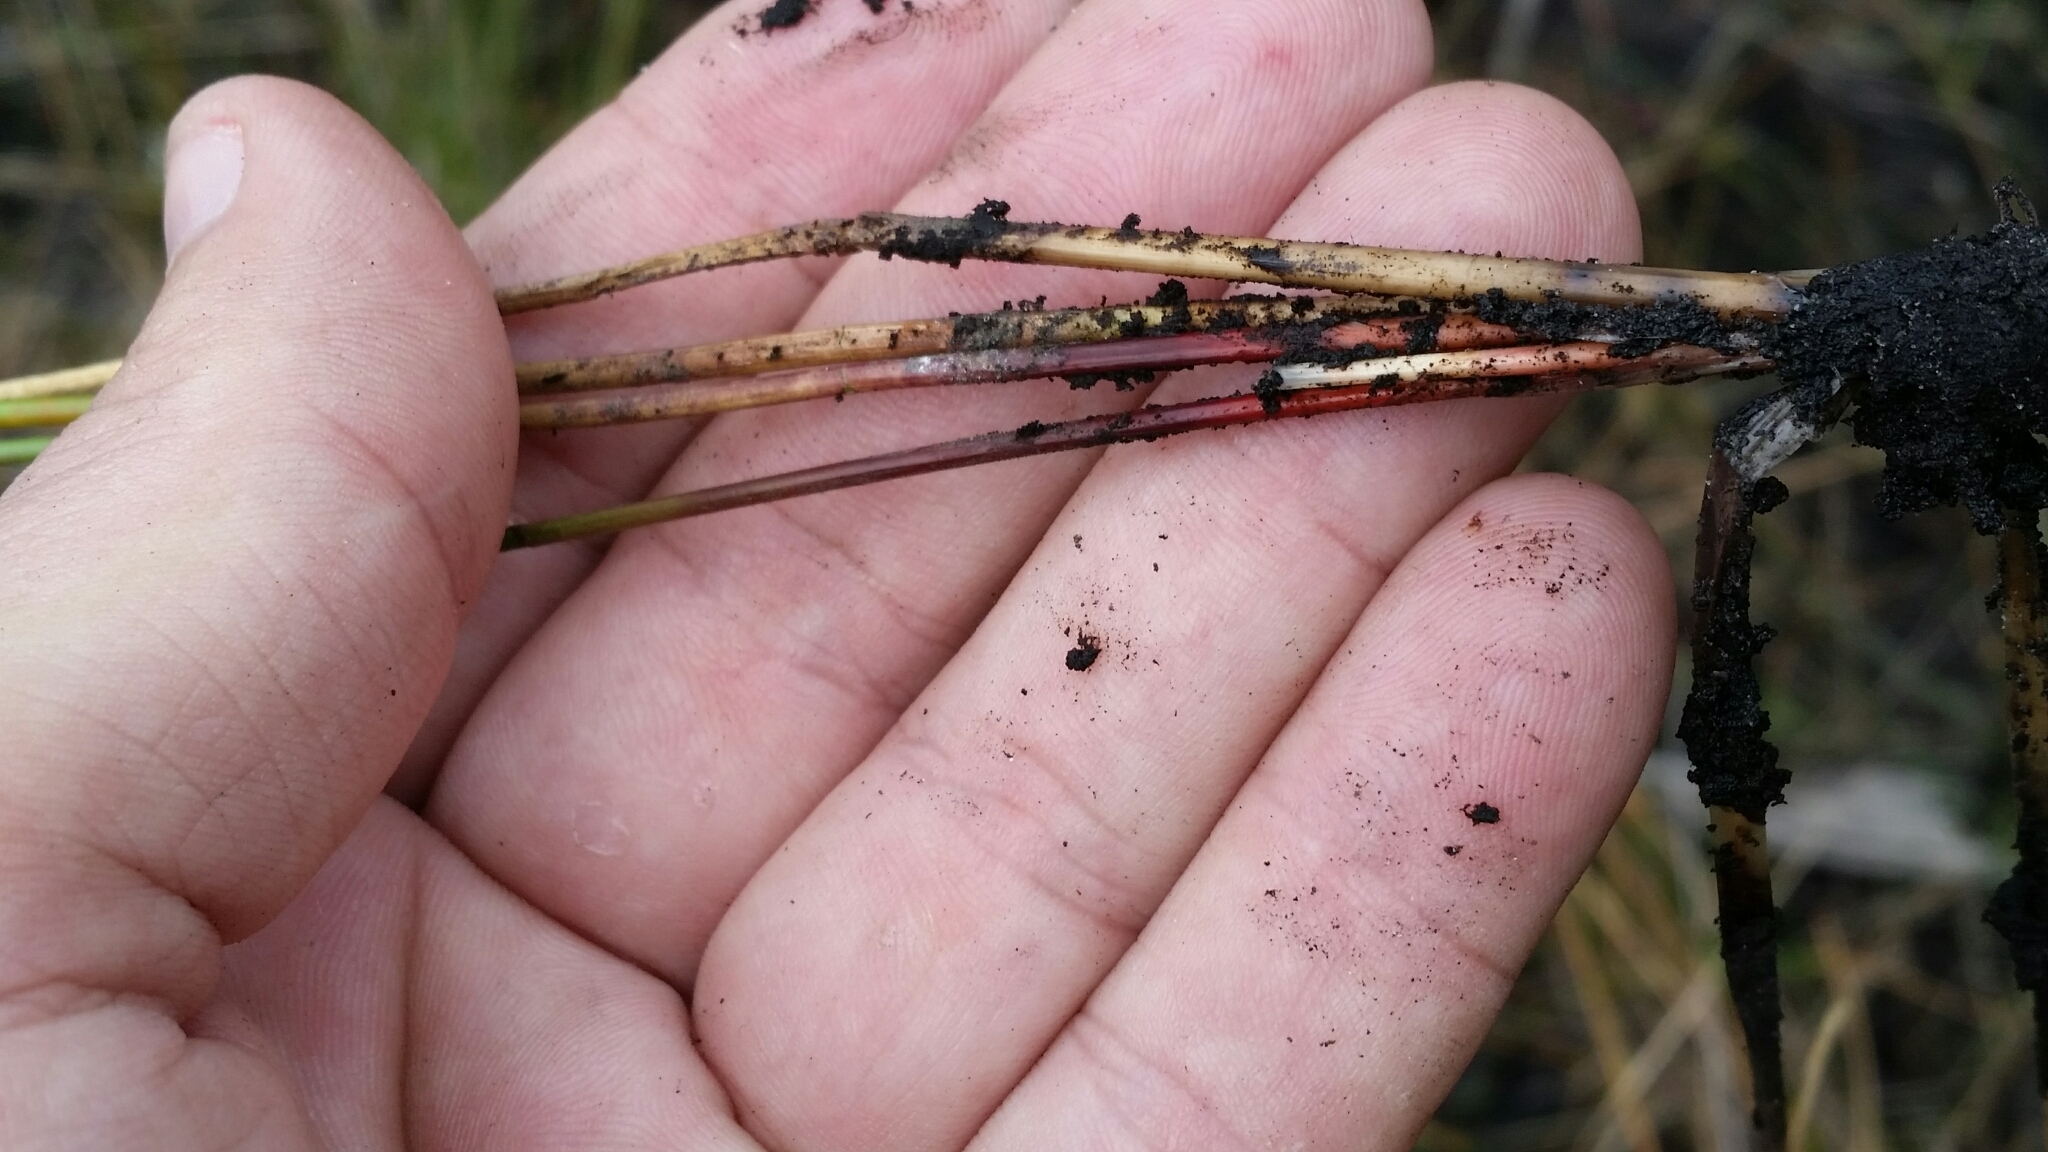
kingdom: Plantae
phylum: Tracheophyta
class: Liliopsida
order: Poales
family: Cyperaceae
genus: Eleocharis
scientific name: Eleocharis cellulosa
